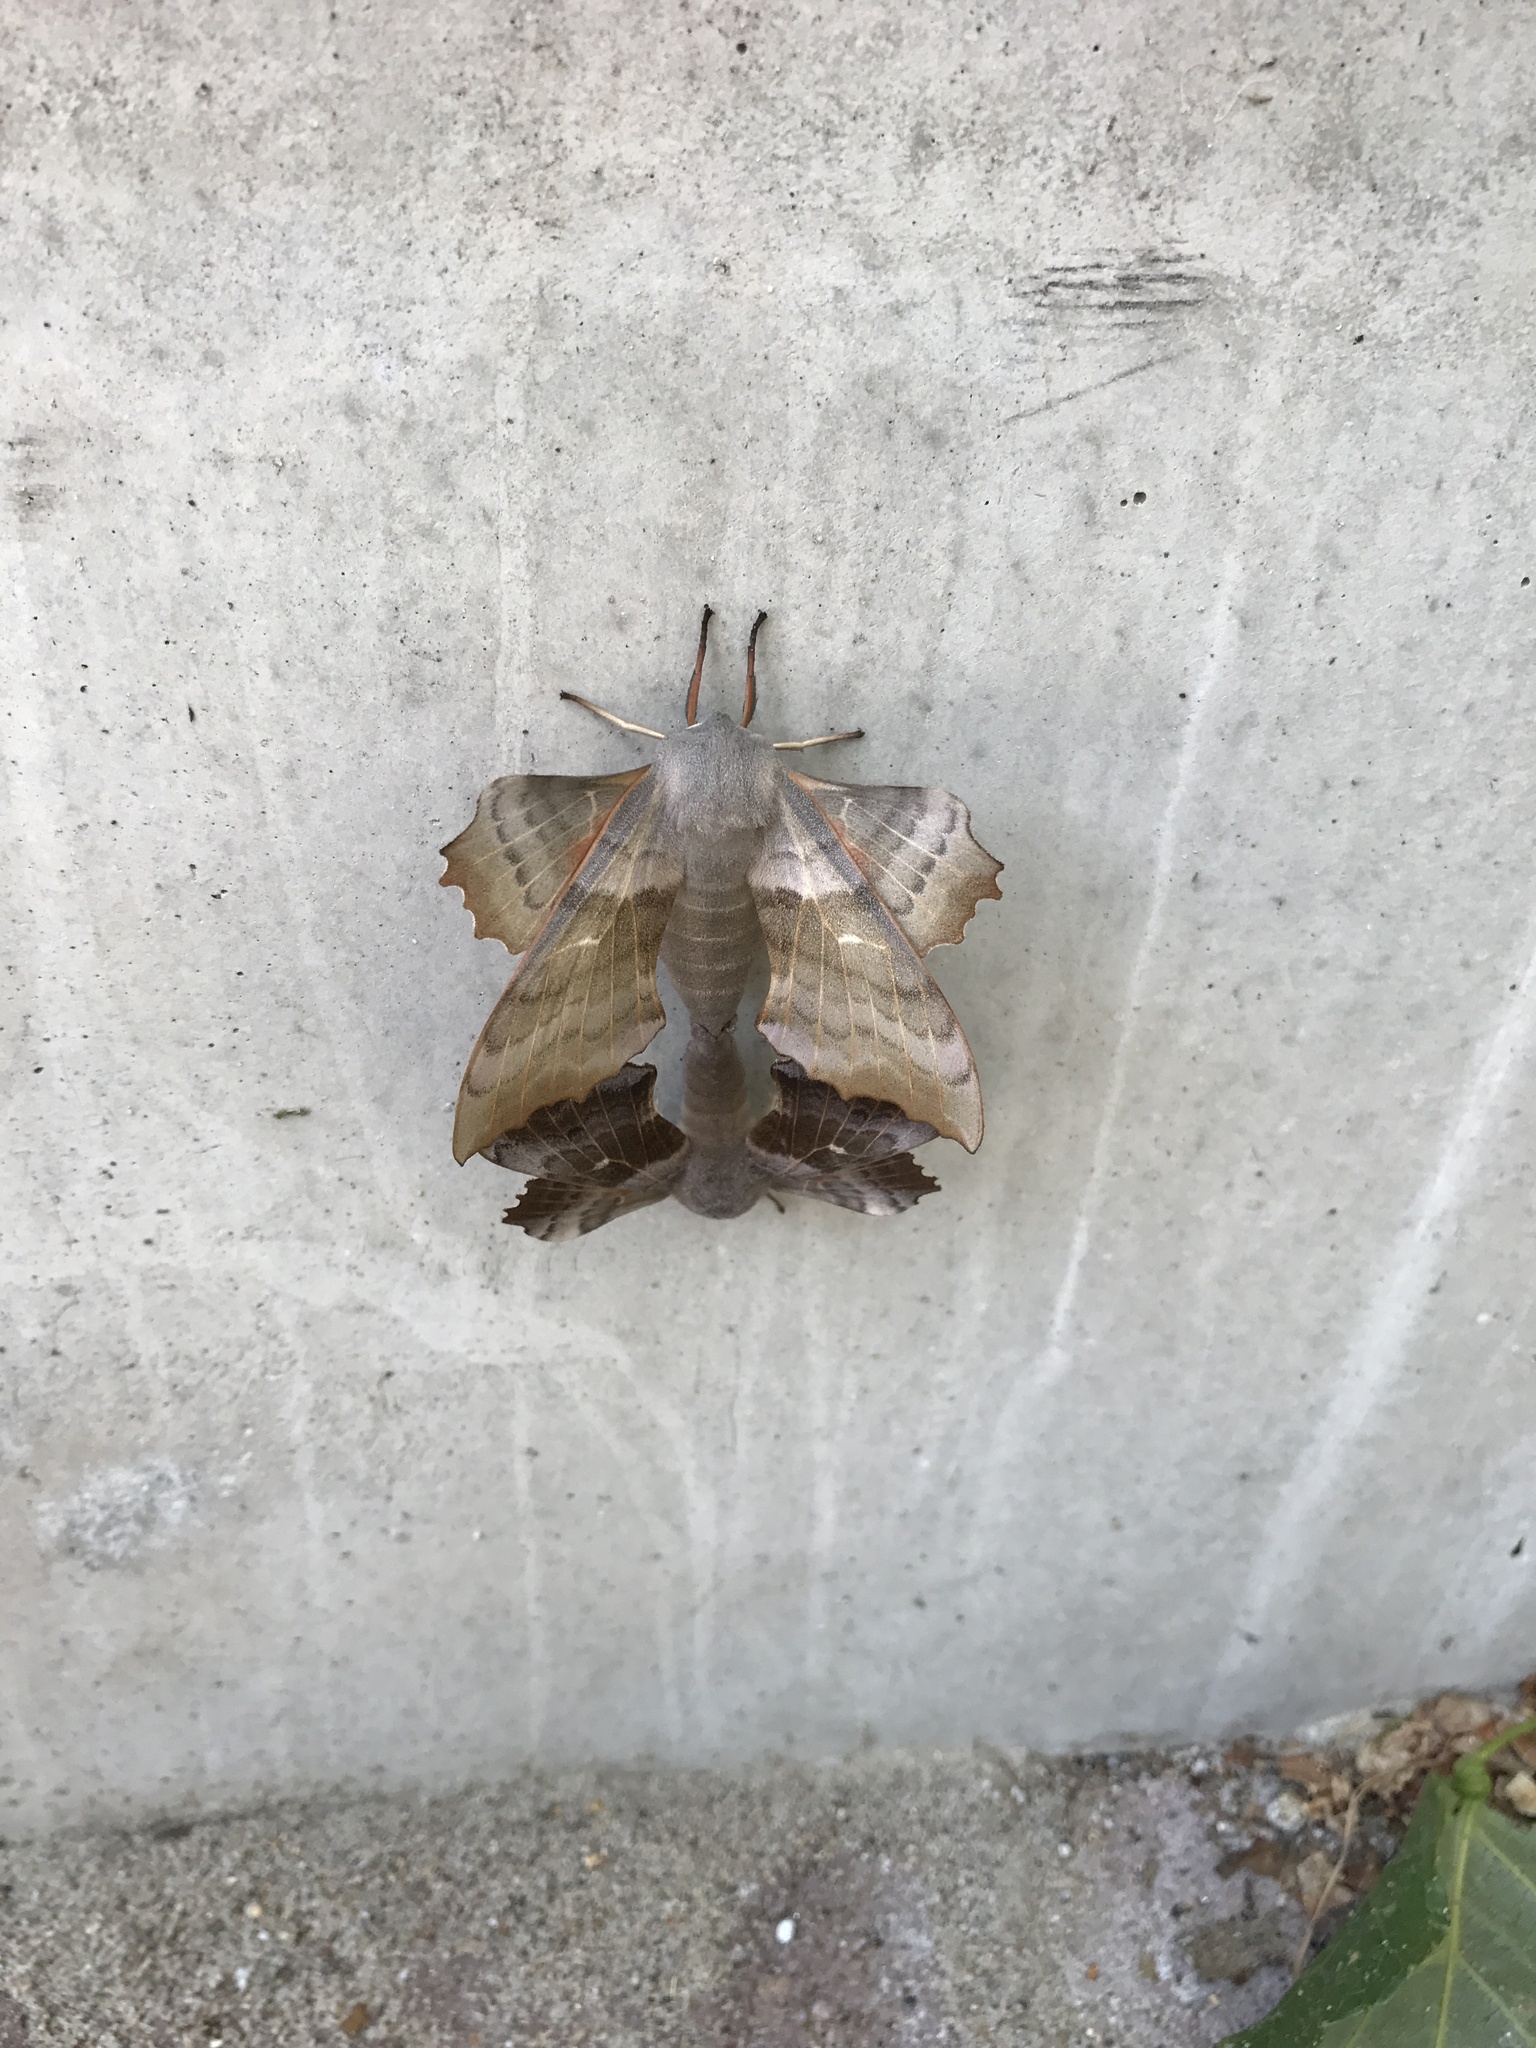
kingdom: Animalia
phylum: Arthropoda
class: Insecta
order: Lepidoptera
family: Sphingidae
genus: Laothoe
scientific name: Laothoe populi
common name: Poplar hawk-moth
